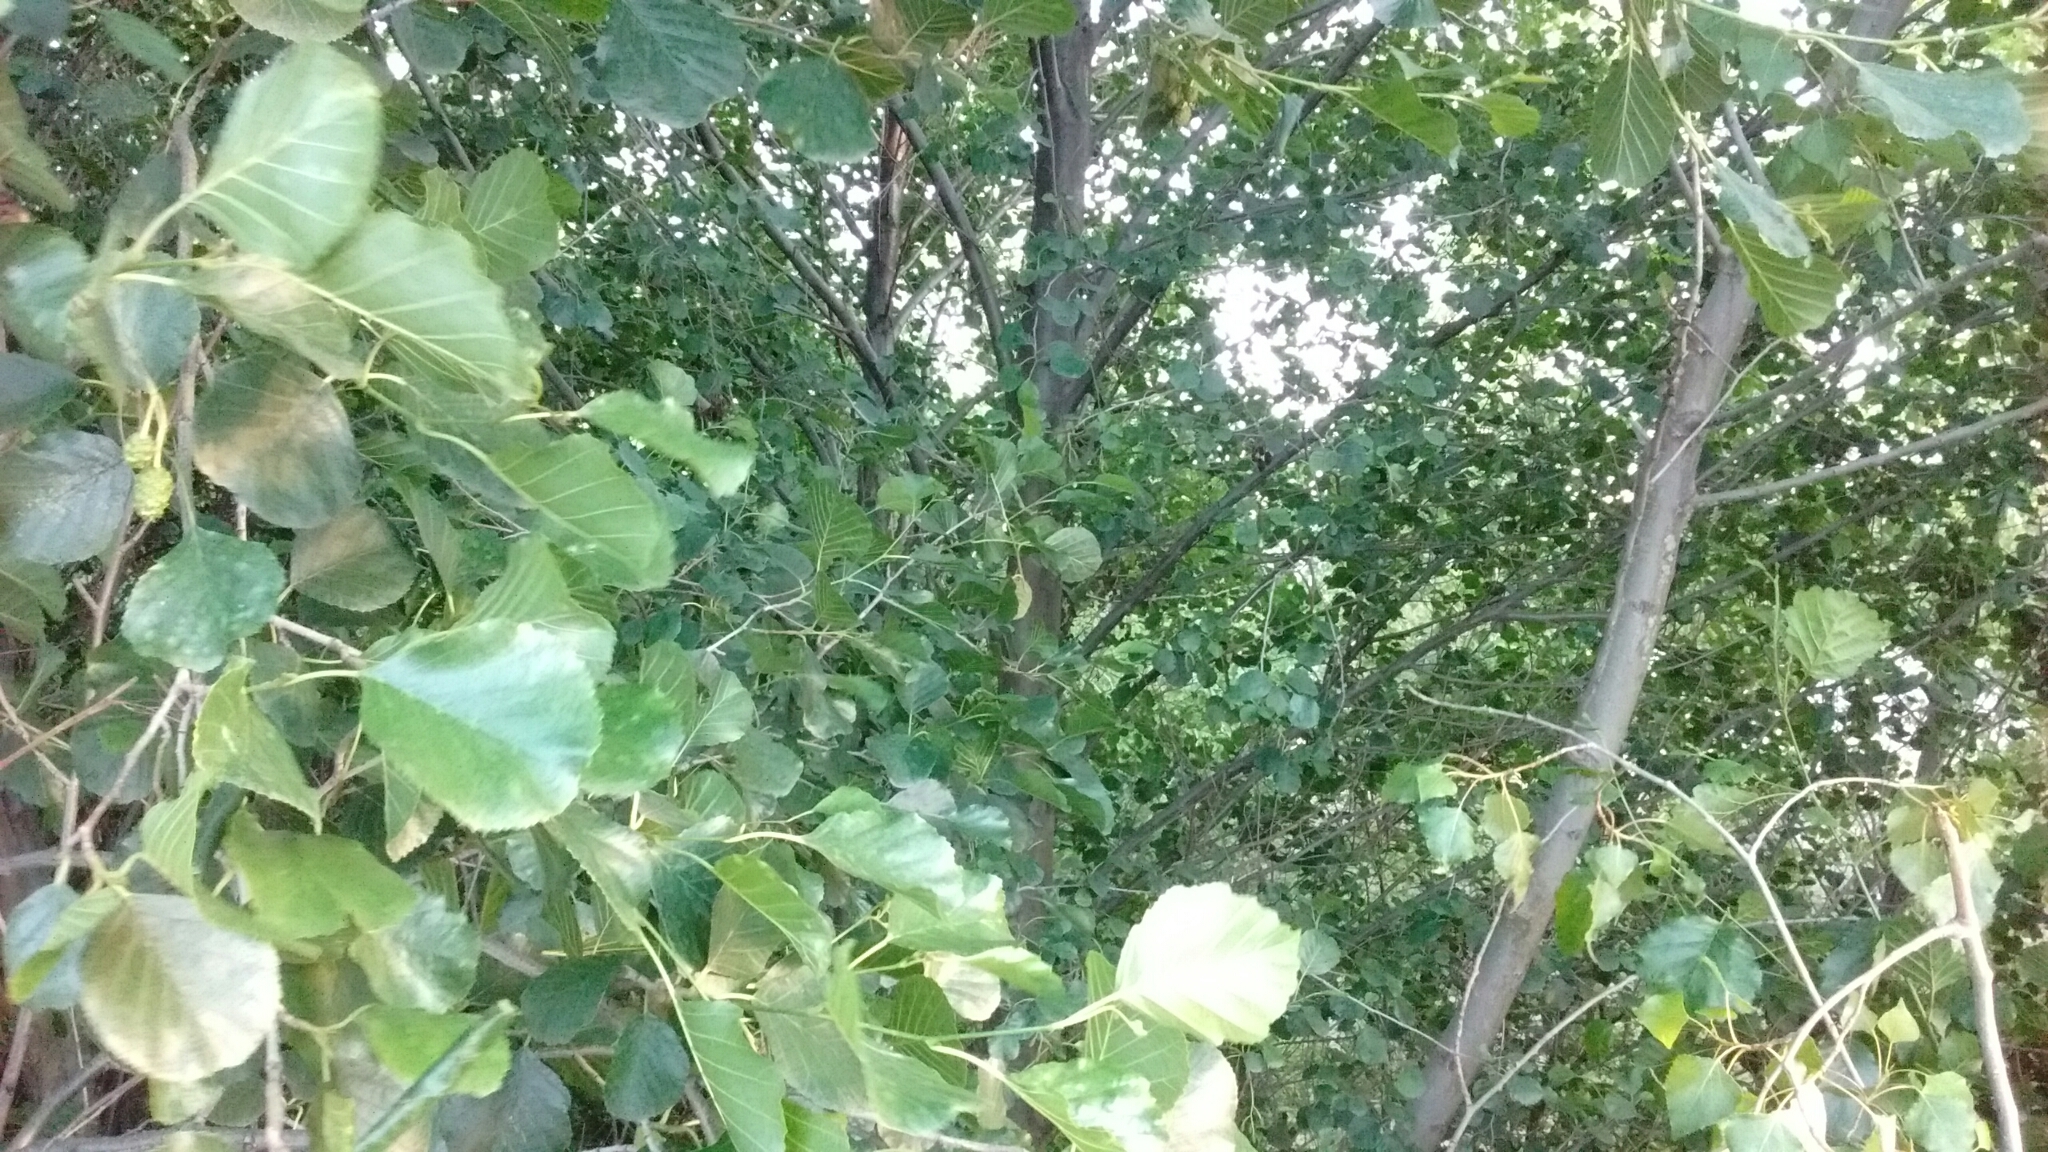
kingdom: Plantae
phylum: Tracheophyta
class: Magnoliopsida
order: Fagales
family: Betulaceae
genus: Alnus
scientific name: Alnus lusitanica
